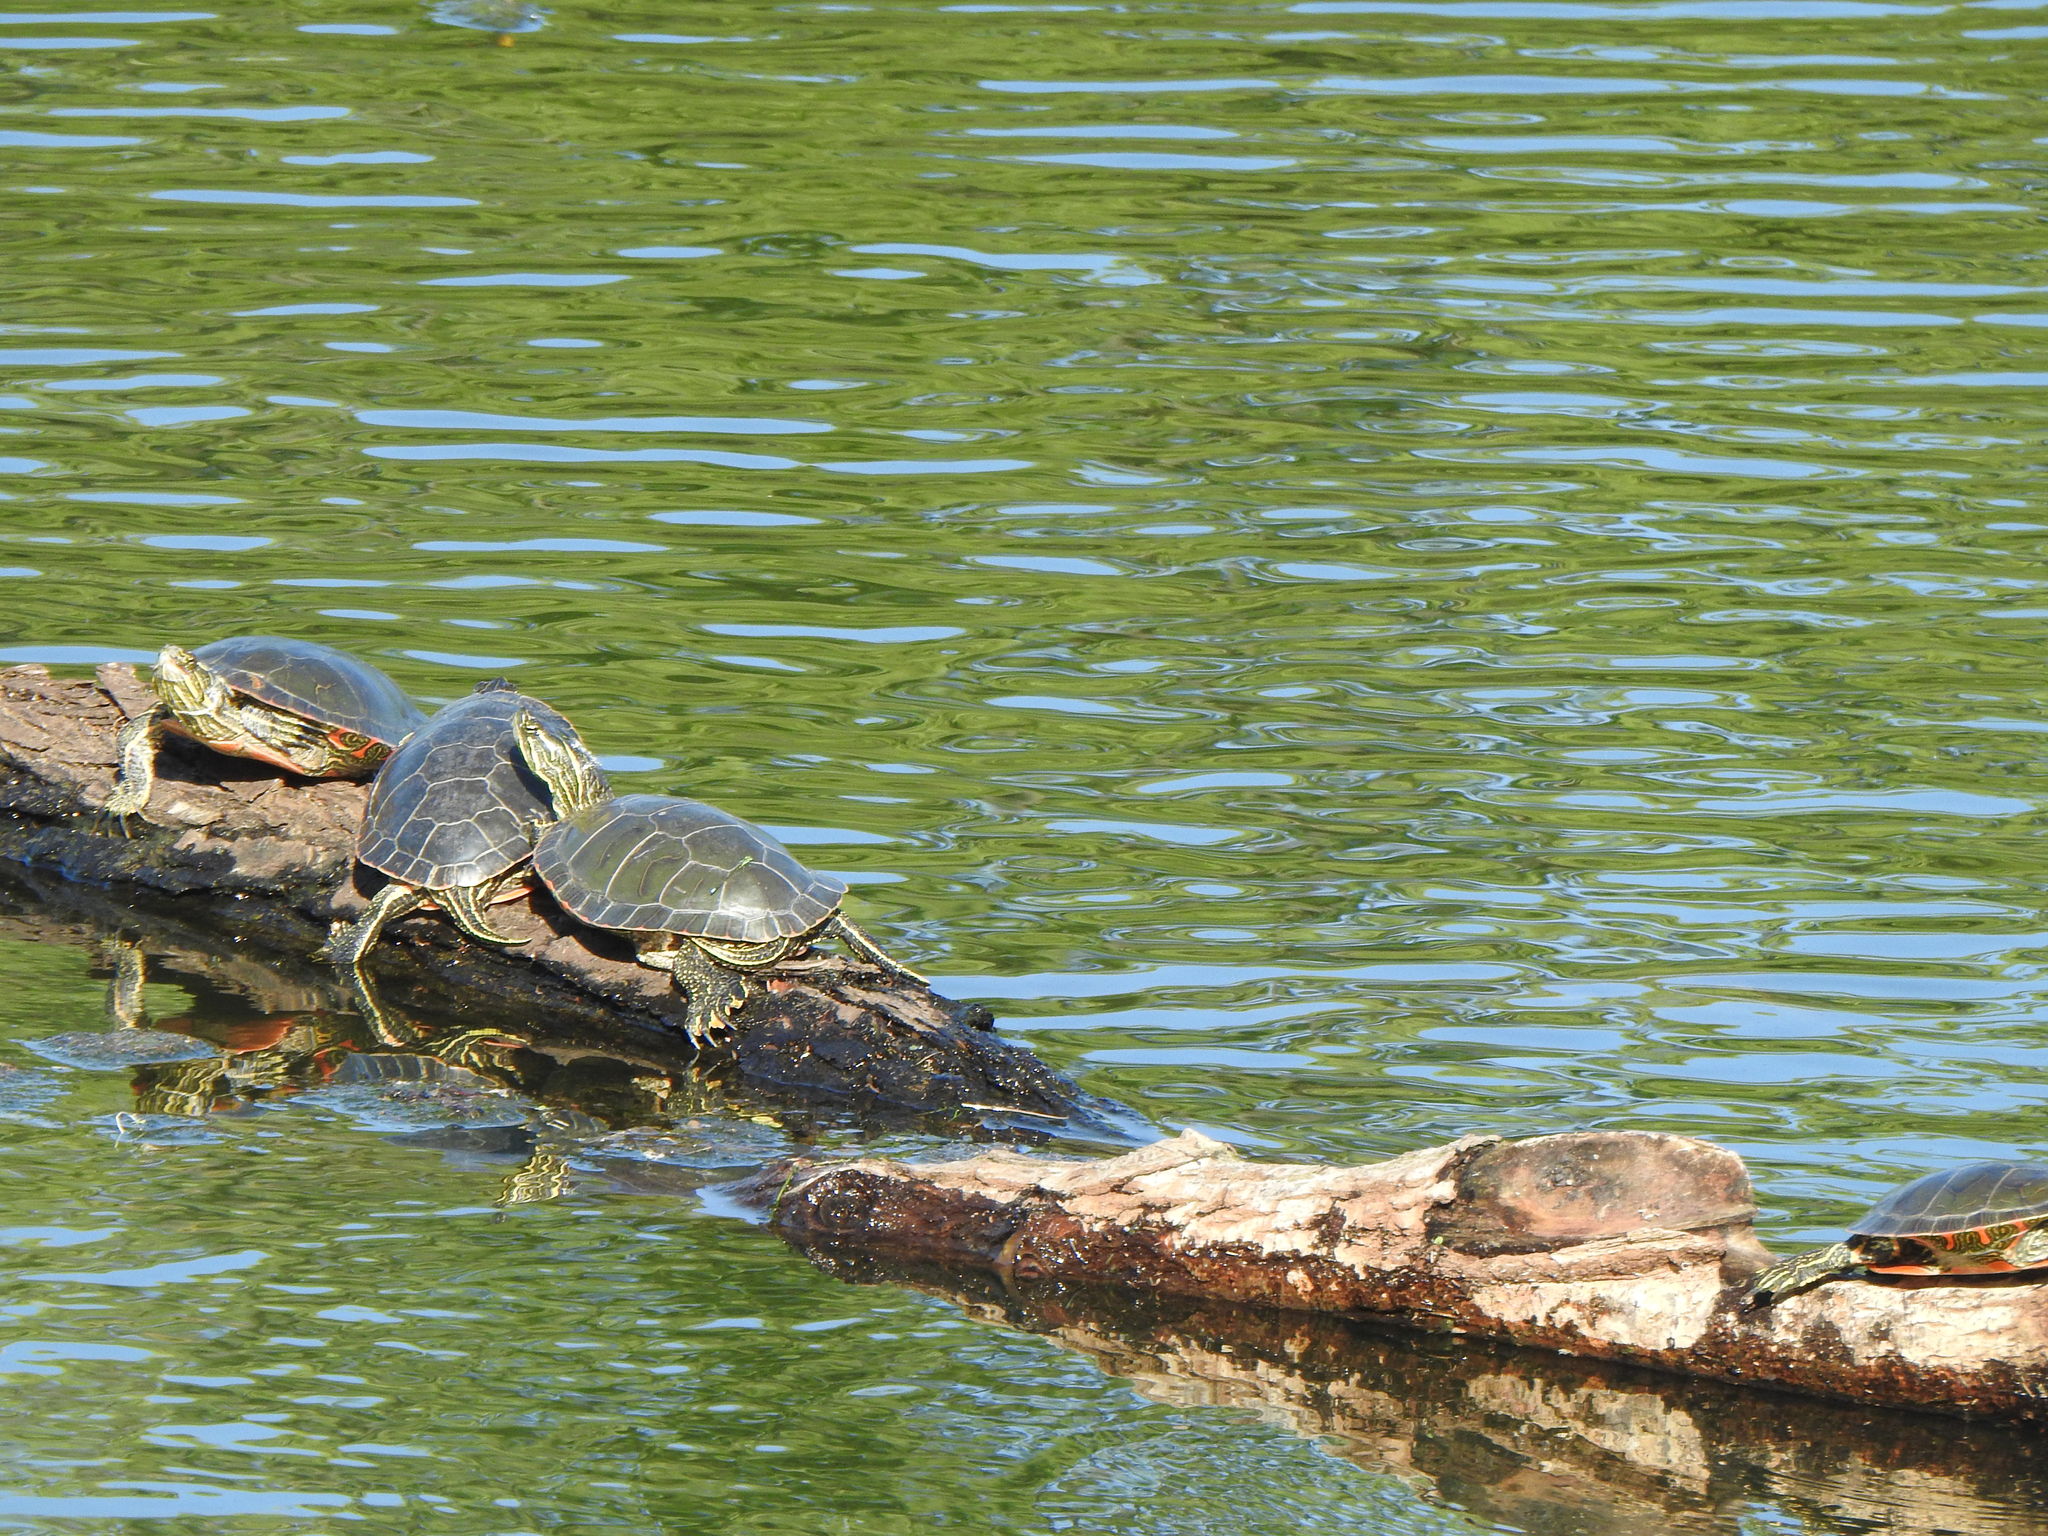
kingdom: Animalia
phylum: Chordata
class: Testudines
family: Emydidae
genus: Chrysemys
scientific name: Chrysemys picta
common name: Painted turtle
